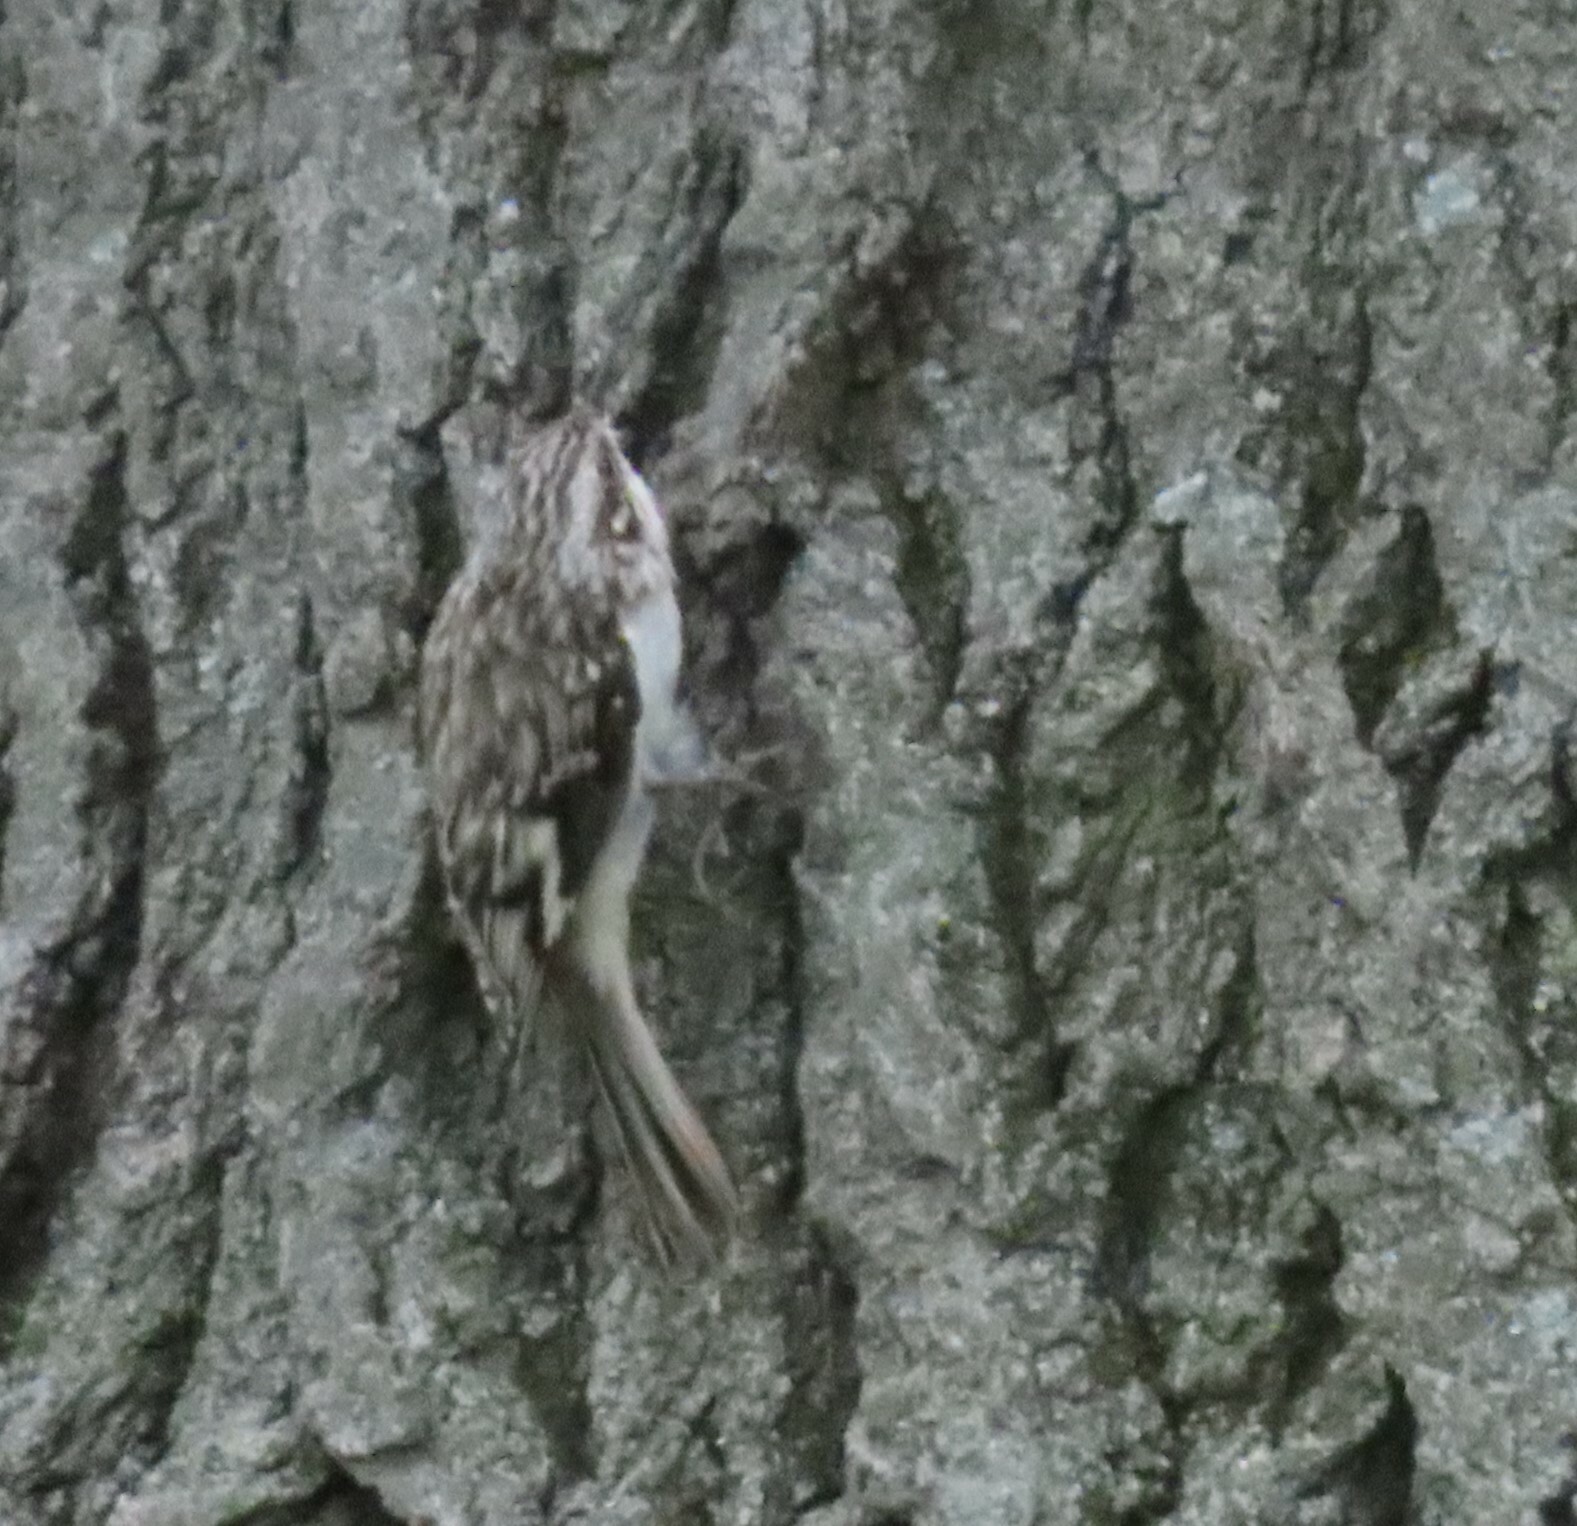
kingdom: Animalia
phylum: Chordata
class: Aves
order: Passeriformes
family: Certhiidae
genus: Certhia
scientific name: Certhia americana
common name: Brown creeper
